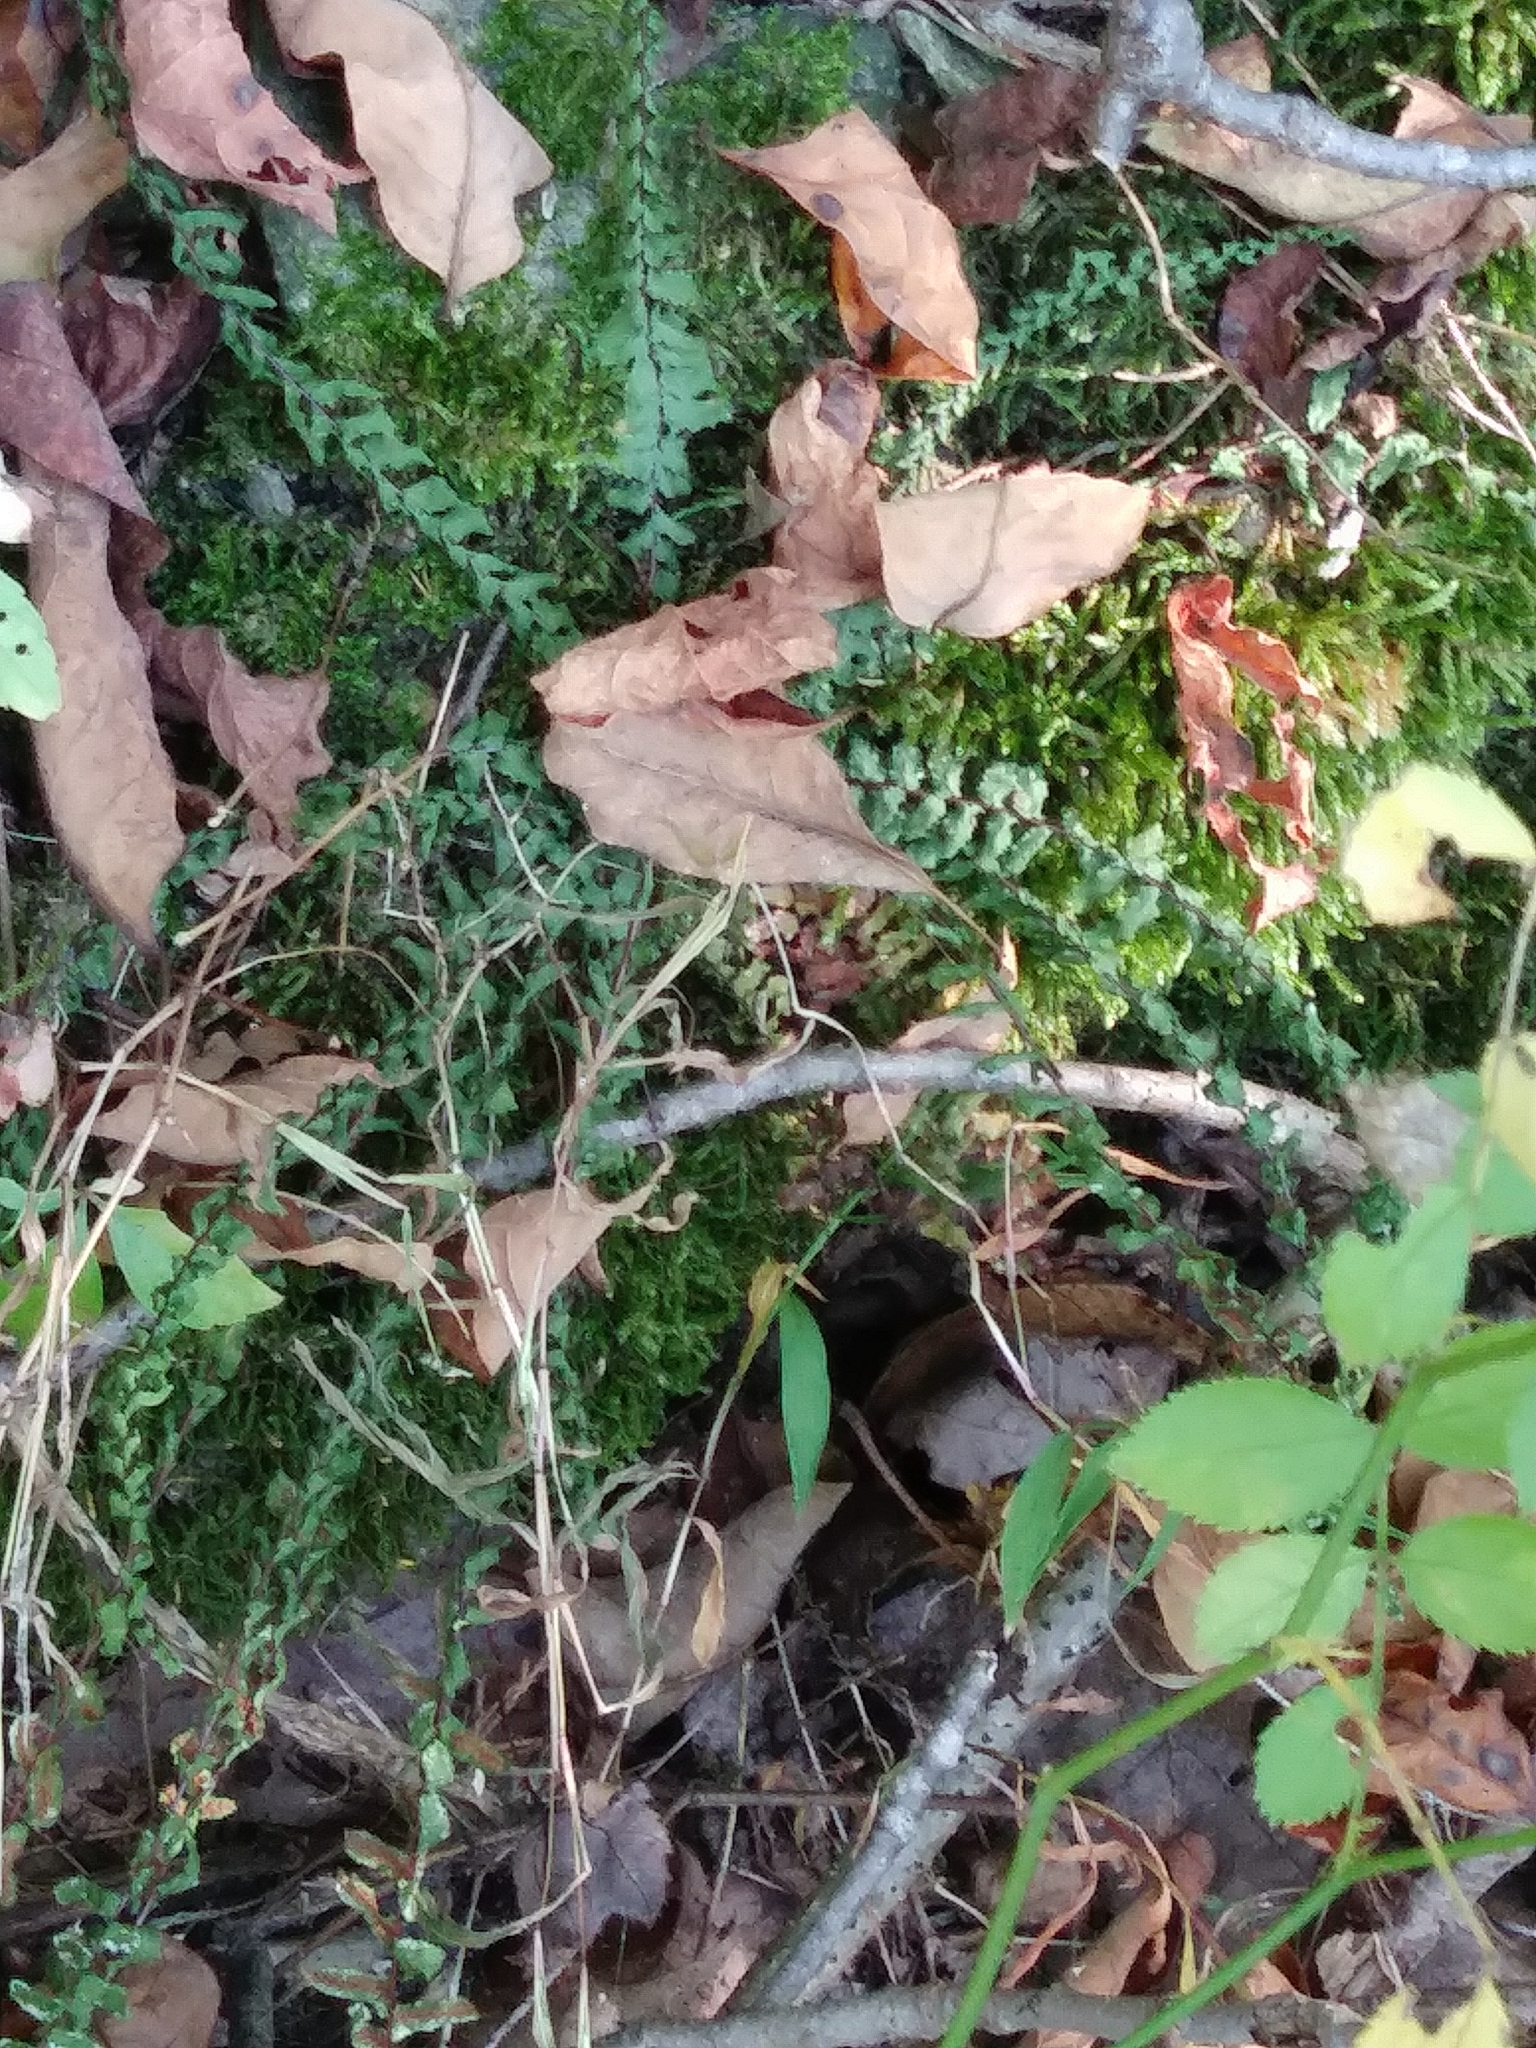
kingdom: Plantae
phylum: Tracheophyta
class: Polypodiopsida
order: Polypodiales
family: Aspleniaceae
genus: Asplenium
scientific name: Asplenium platyneuron
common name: Ebony spleenwort
